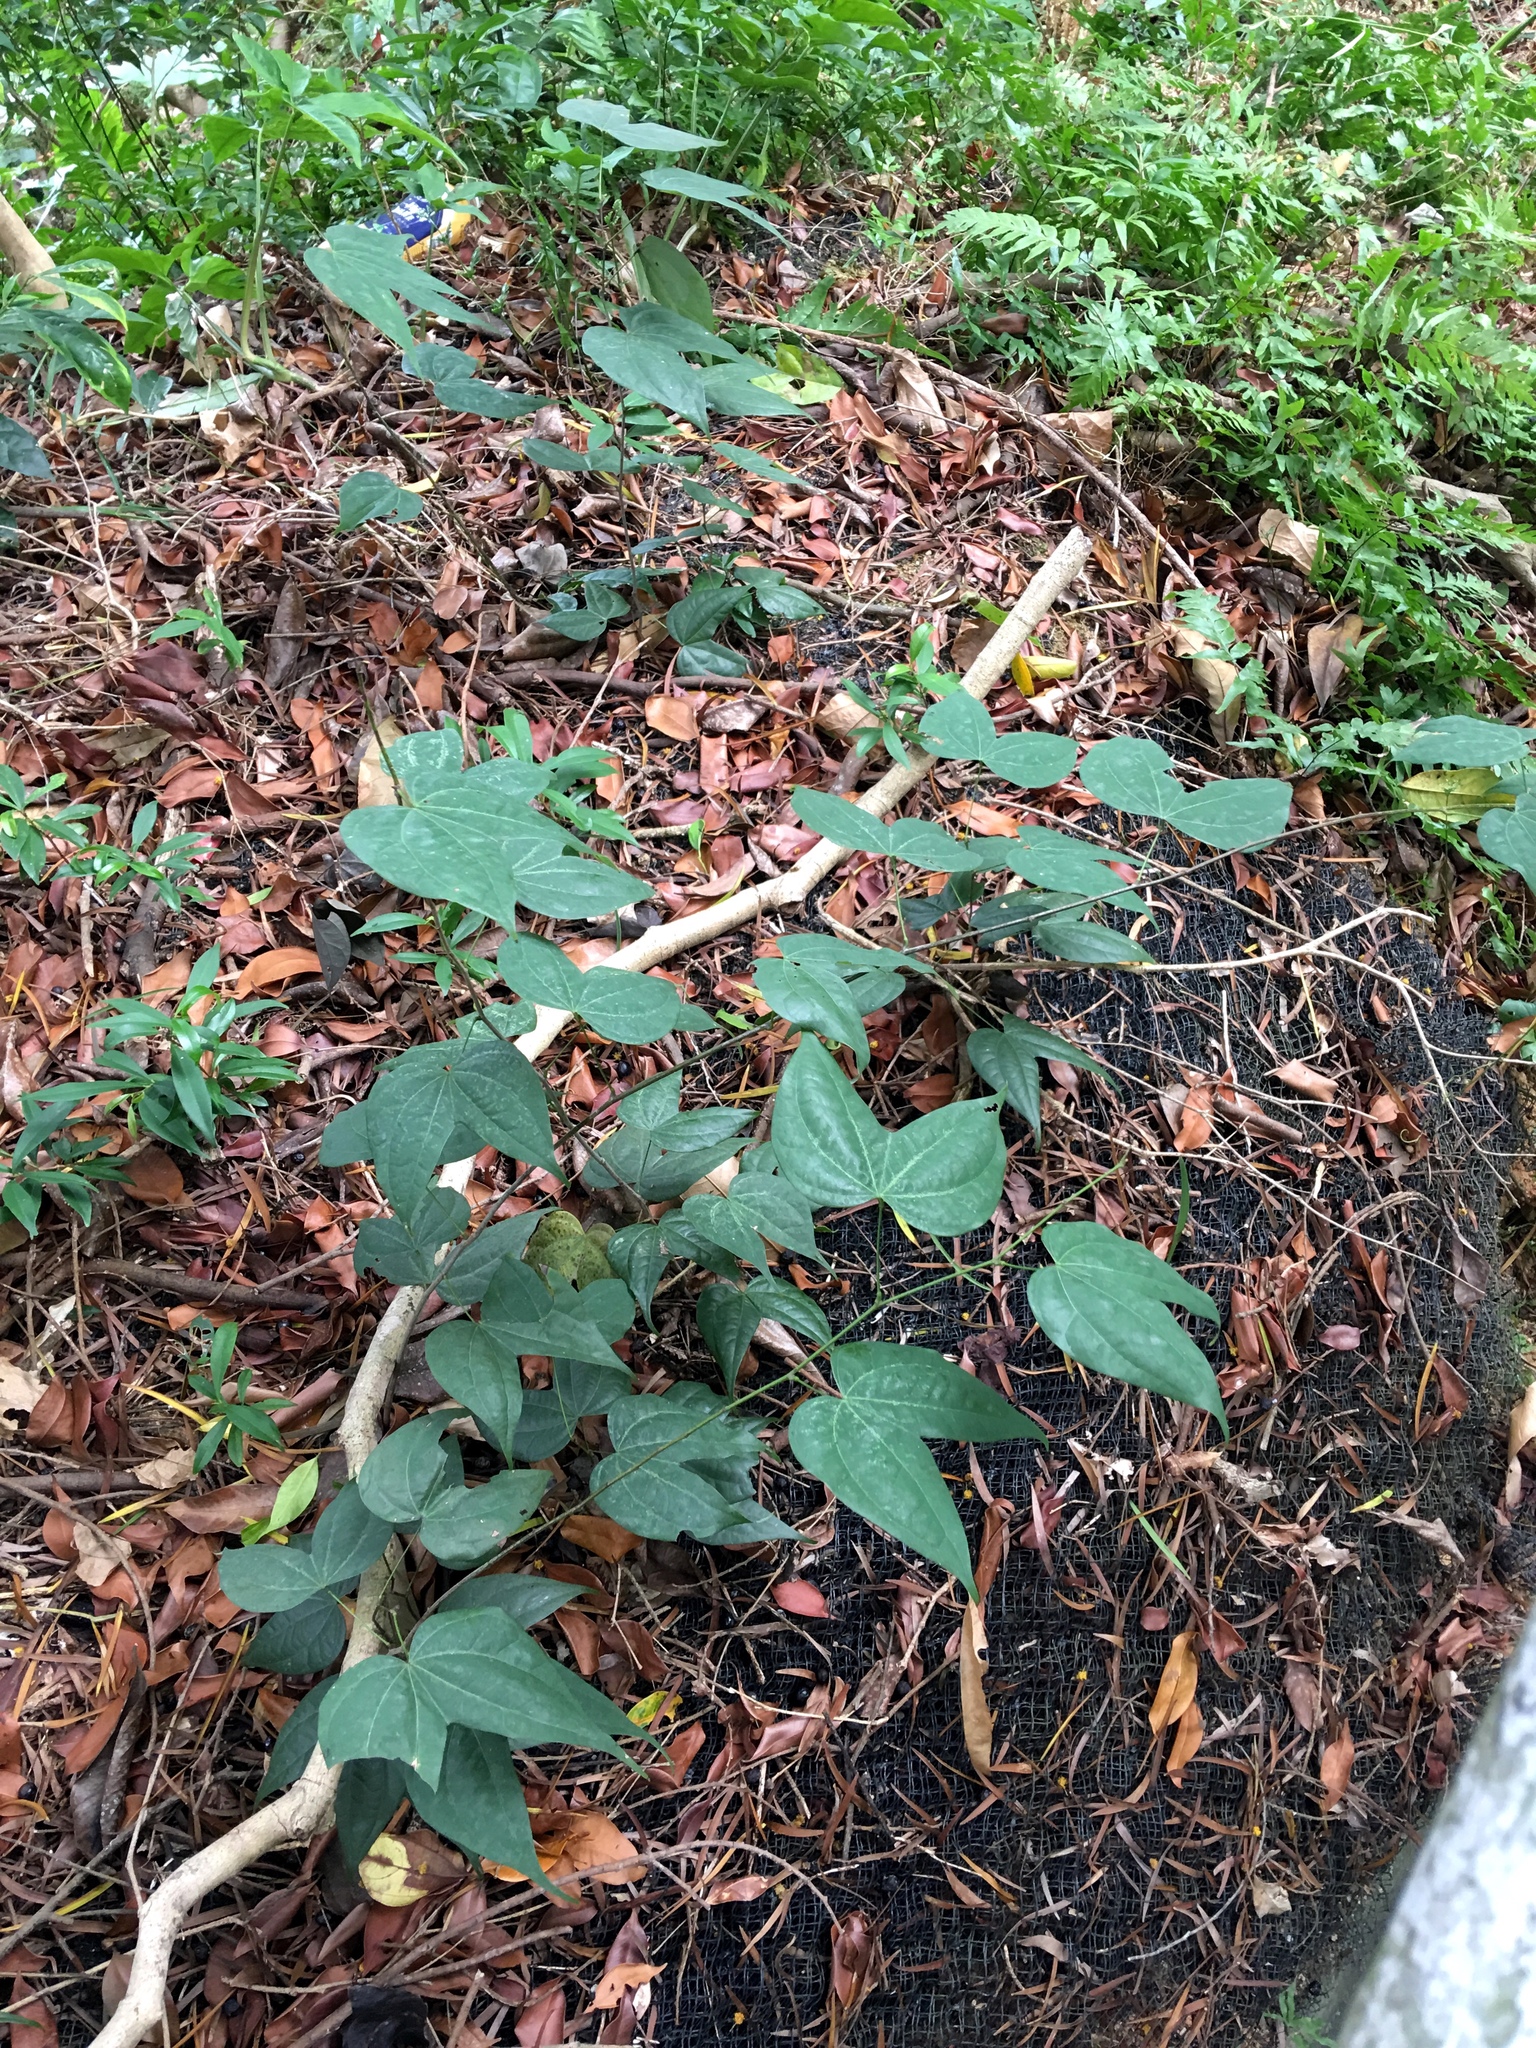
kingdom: Plantae
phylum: Tracheophyta
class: Magnoliopsida
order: Fabales
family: Fabaceae
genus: Phanera
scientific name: Phanera championii
